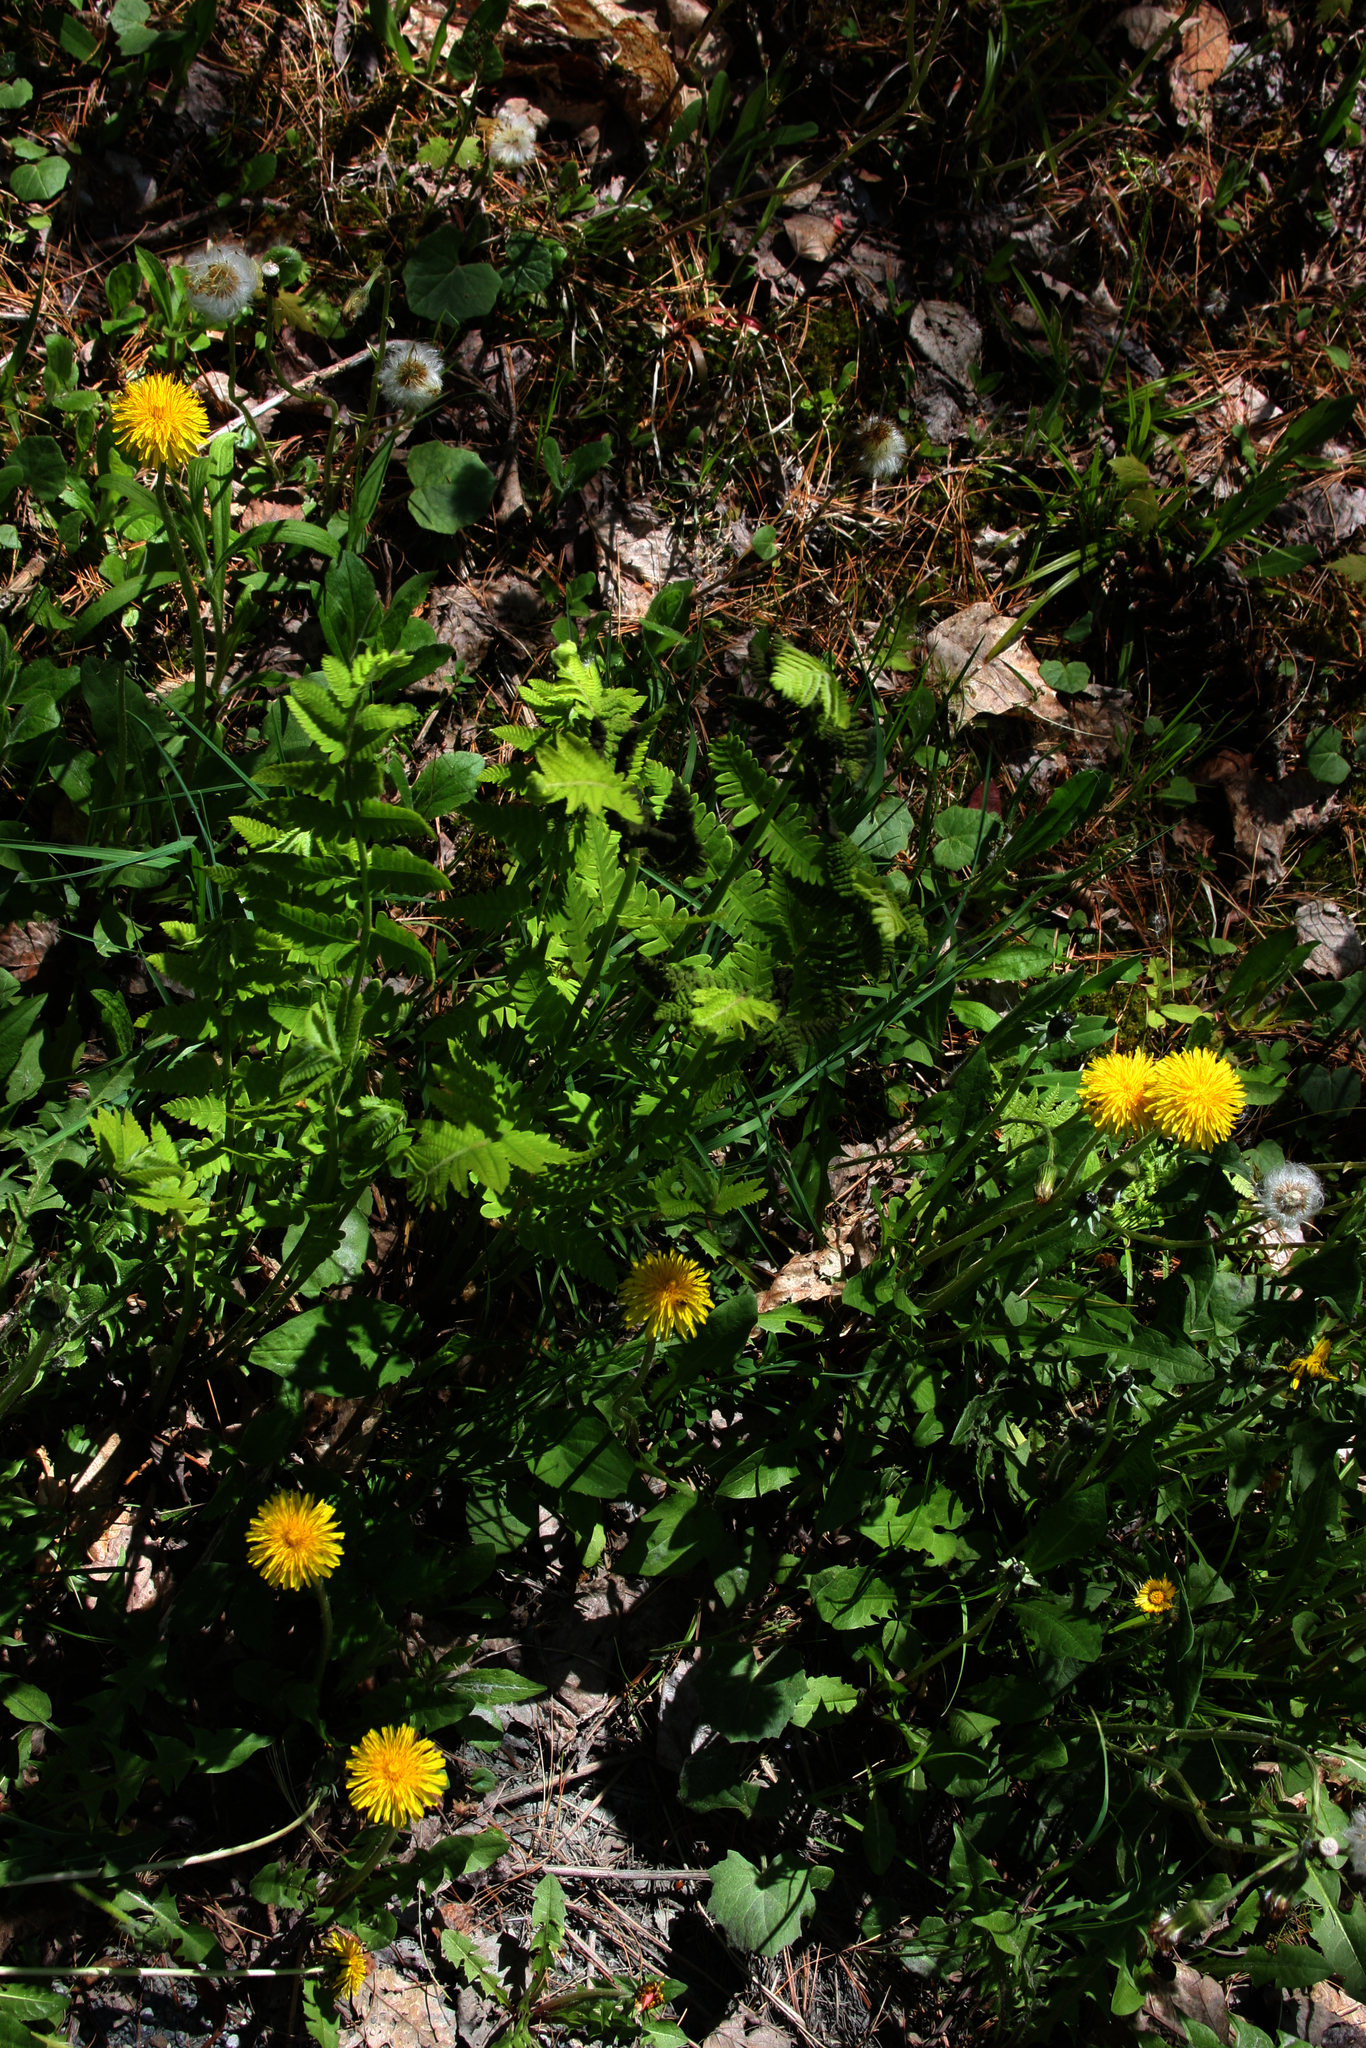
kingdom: Plantae
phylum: Tracheophyta
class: Magnoliopsida
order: Asterales
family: Asteraceae
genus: Taraxacum
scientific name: Taraxacum officinale
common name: Common dandelion
